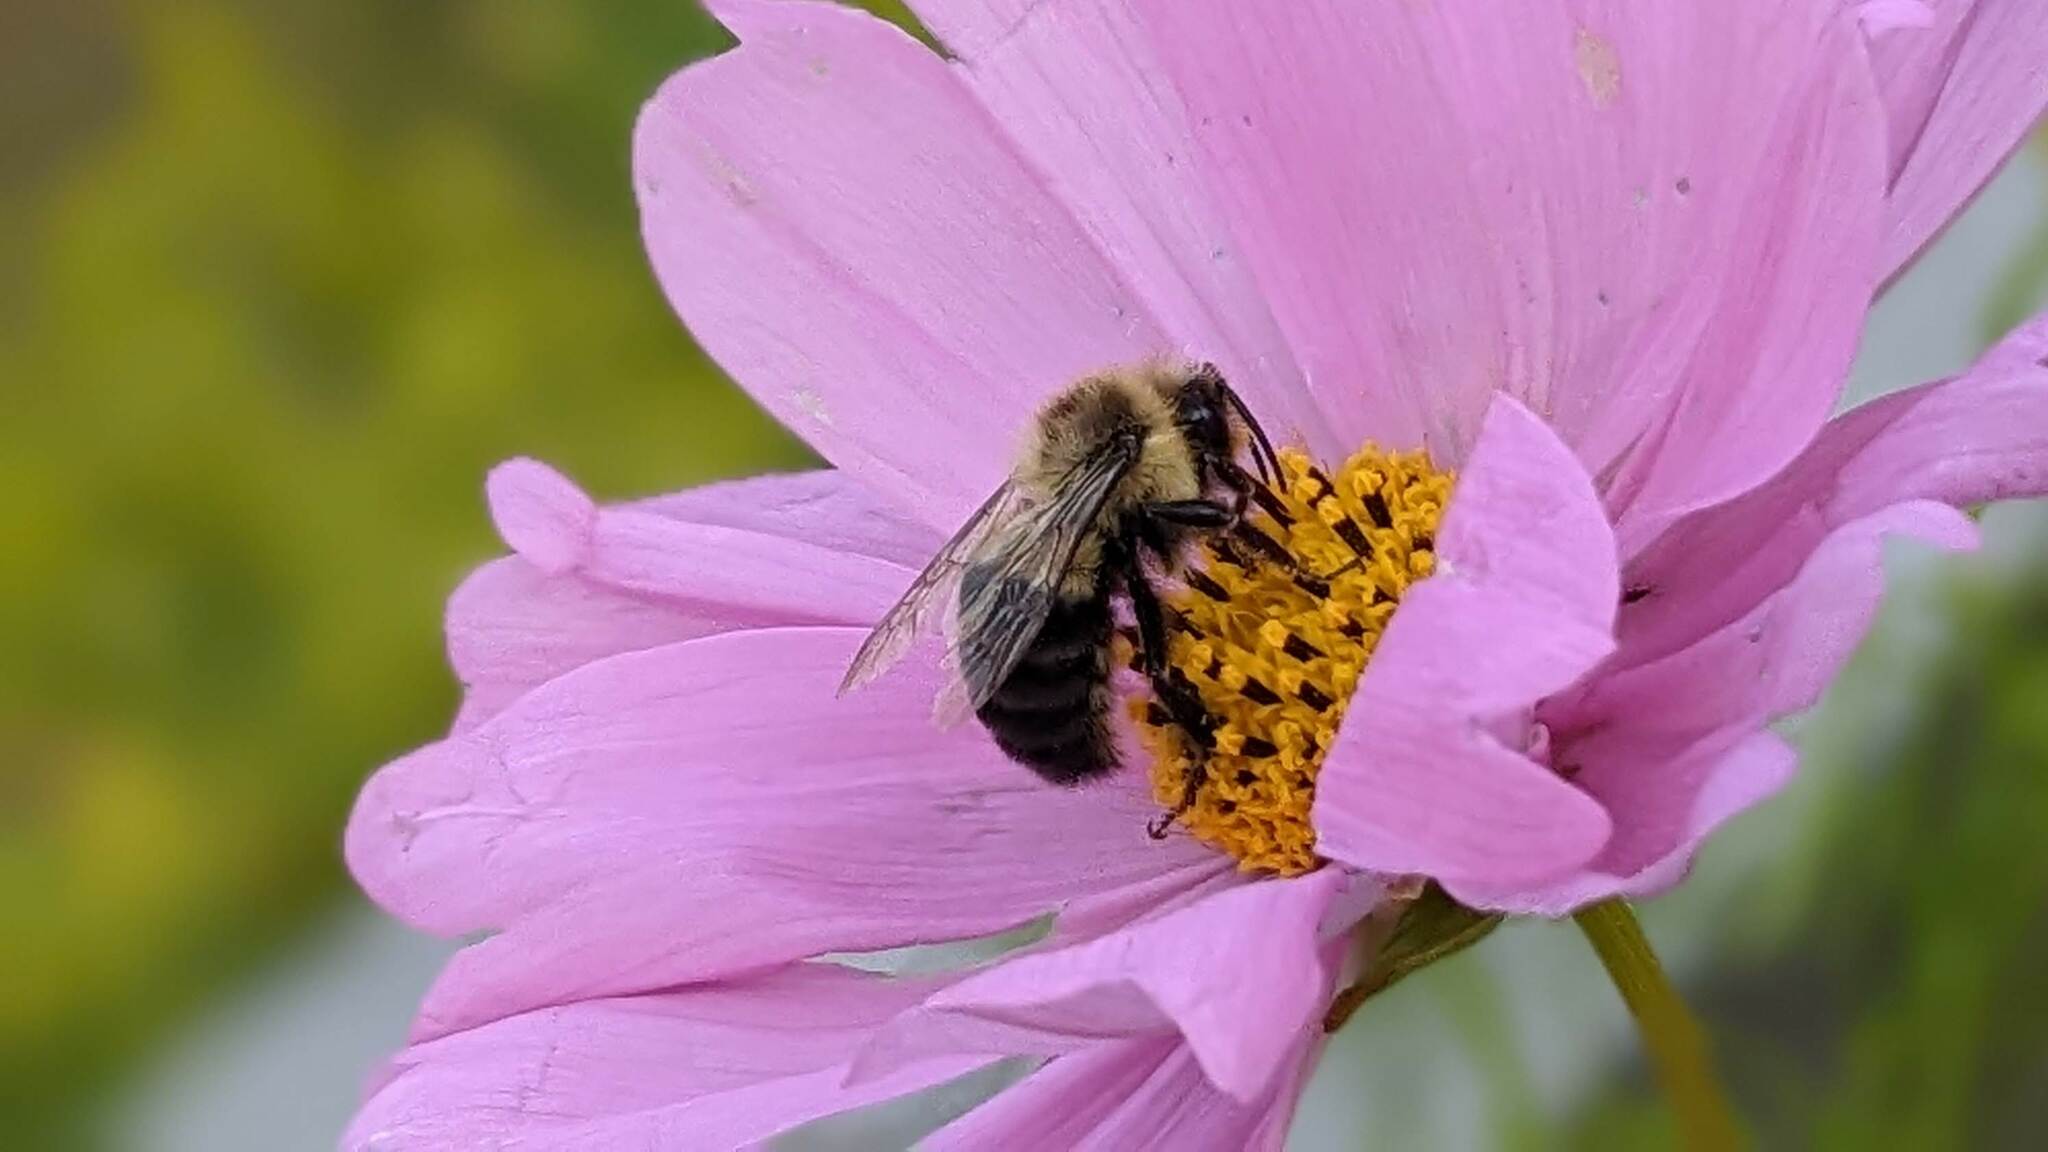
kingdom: Animalia
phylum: Arthropoda
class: Insecta
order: Hymenoptera
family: Apidae
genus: Bombus
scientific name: Bombus impatiens
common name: Common eastern bumble bee
